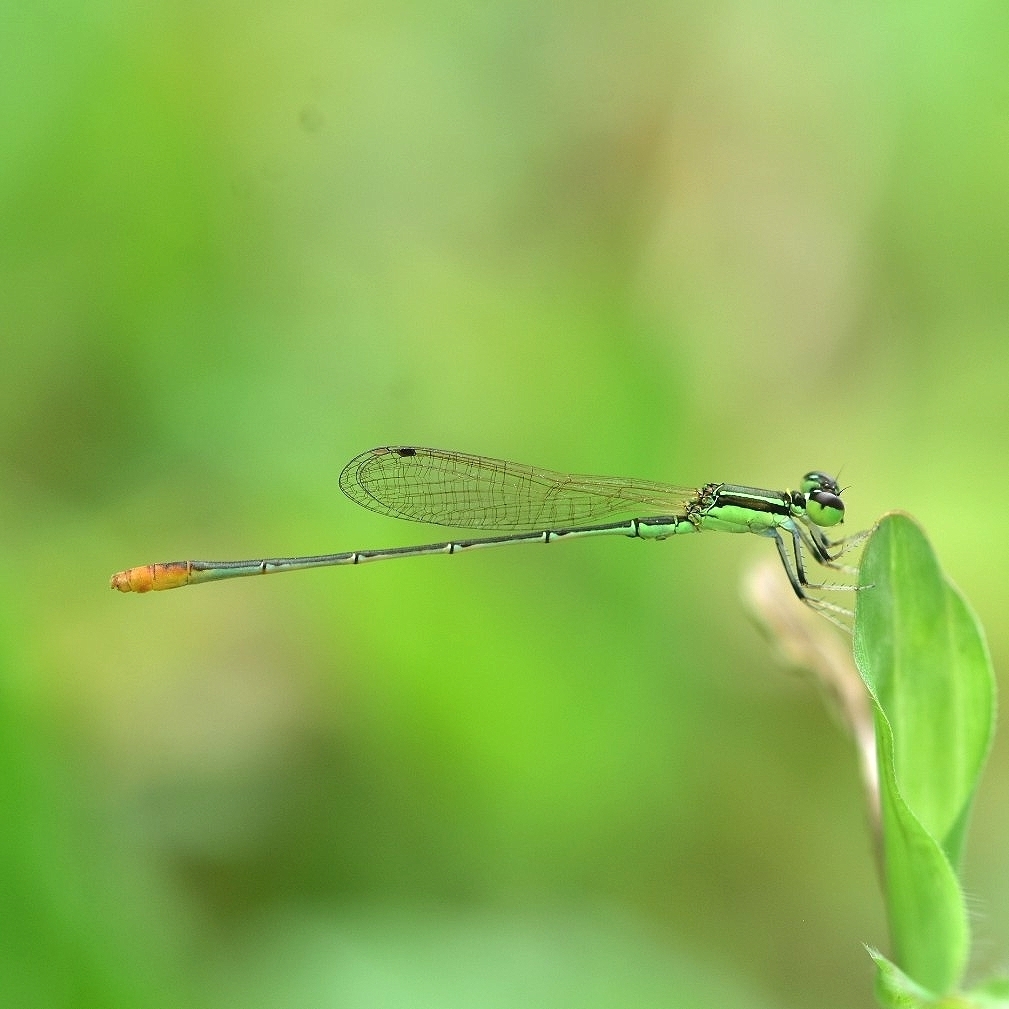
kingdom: Animalia
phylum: Arthropoda
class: Insecta
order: Odonata
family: Coenagrionidae
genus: Agriocnemis
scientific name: Agriocnemis pygmaea
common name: Pygmy wisp
